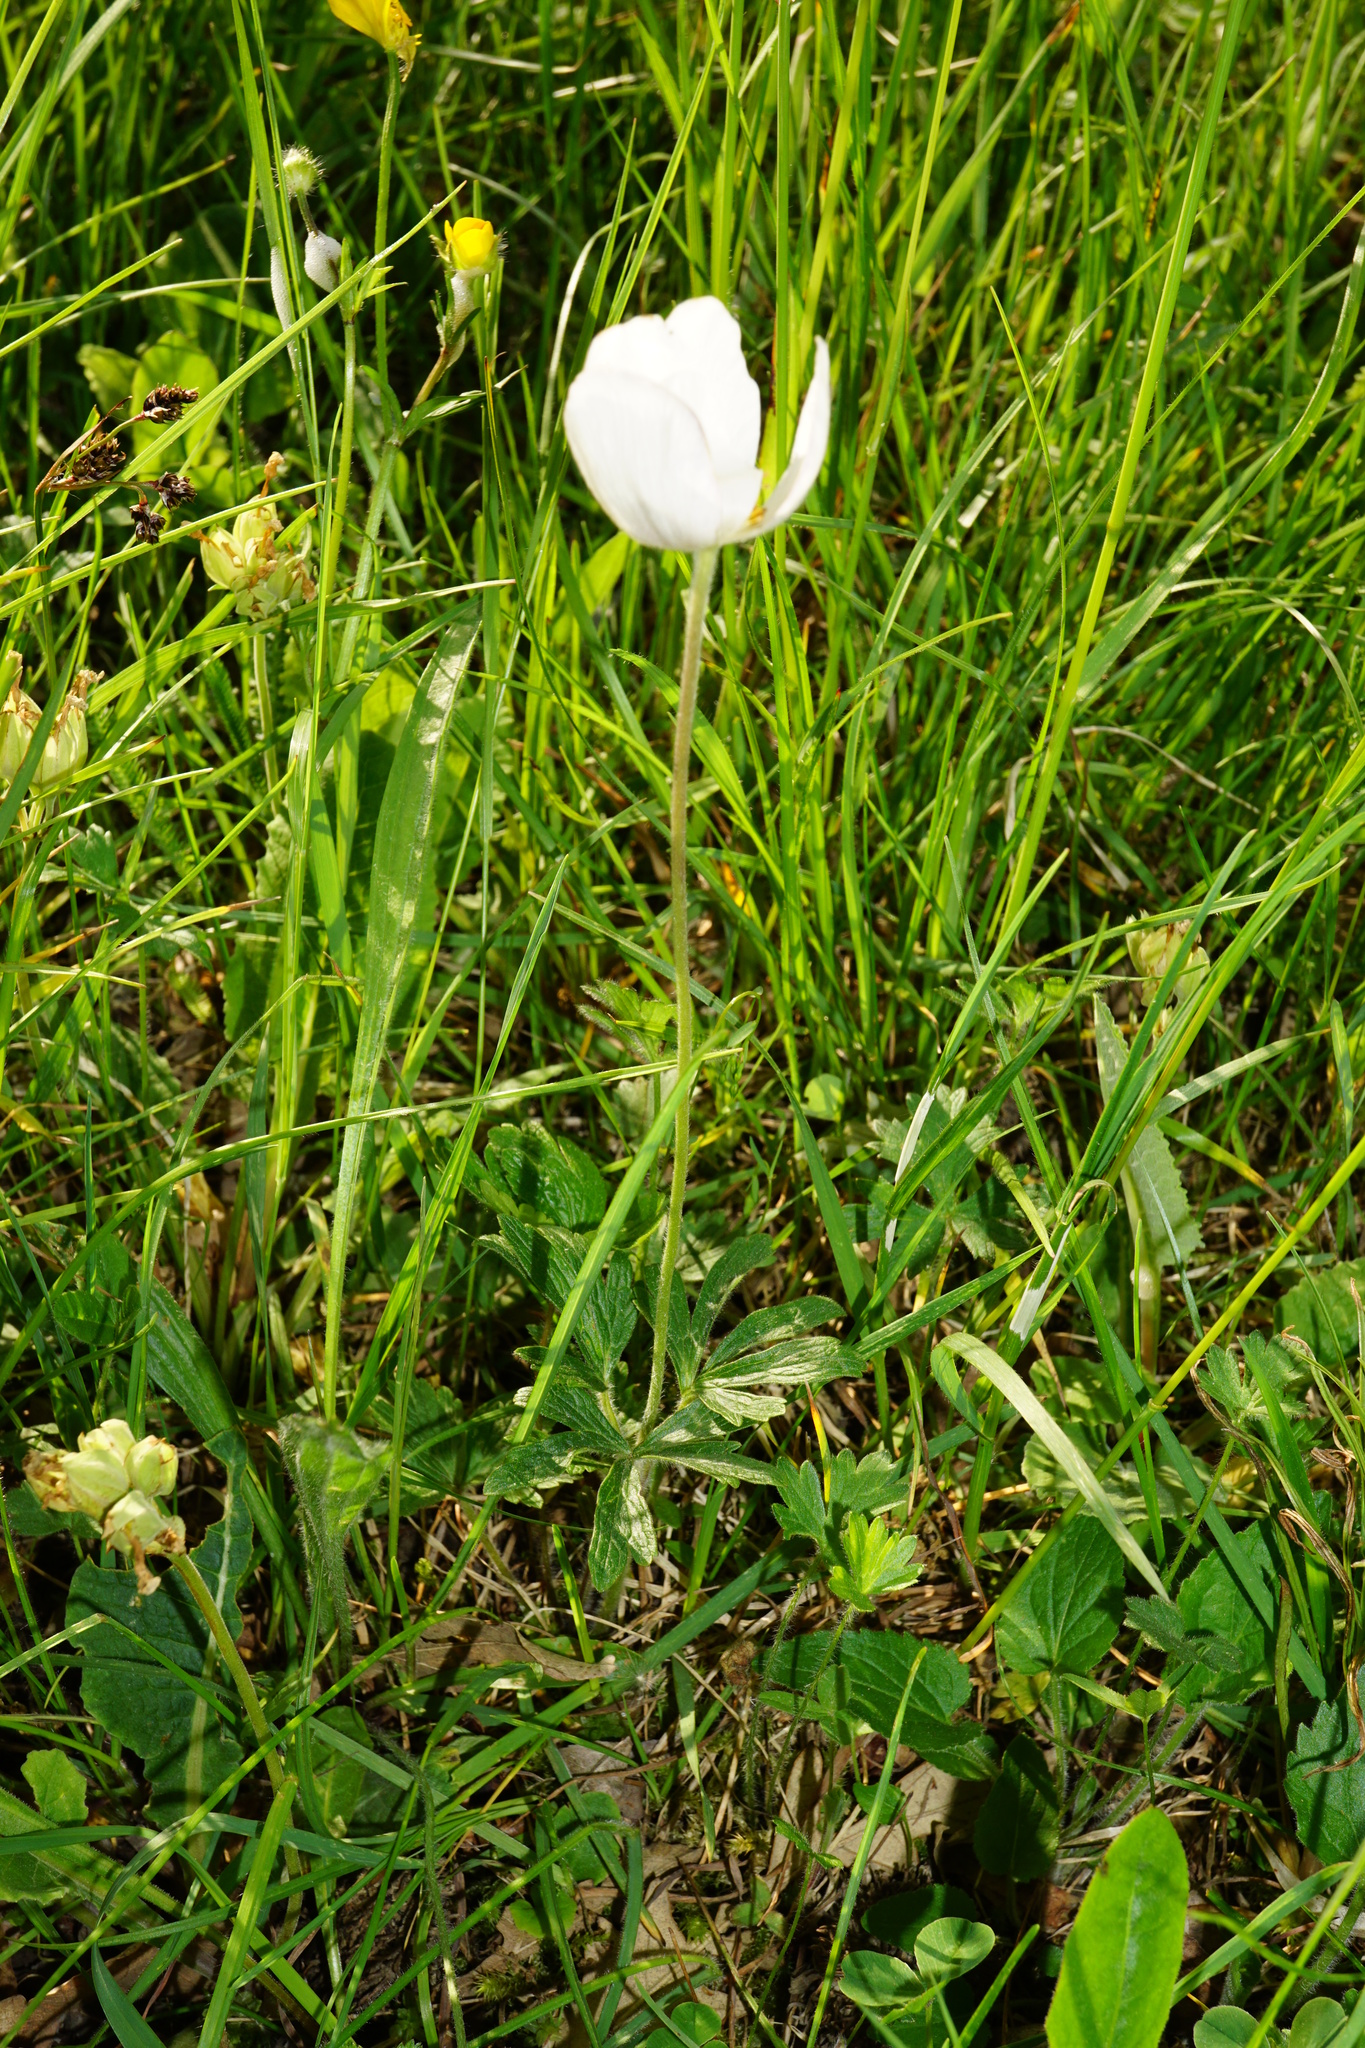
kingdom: Plantae
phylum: Tracheophyta
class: Magnoliopsida
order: Ranunculales
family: Ranunculaceae
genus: Anemone
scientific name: Anemone sylvestris
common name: Snowdrop anemone
